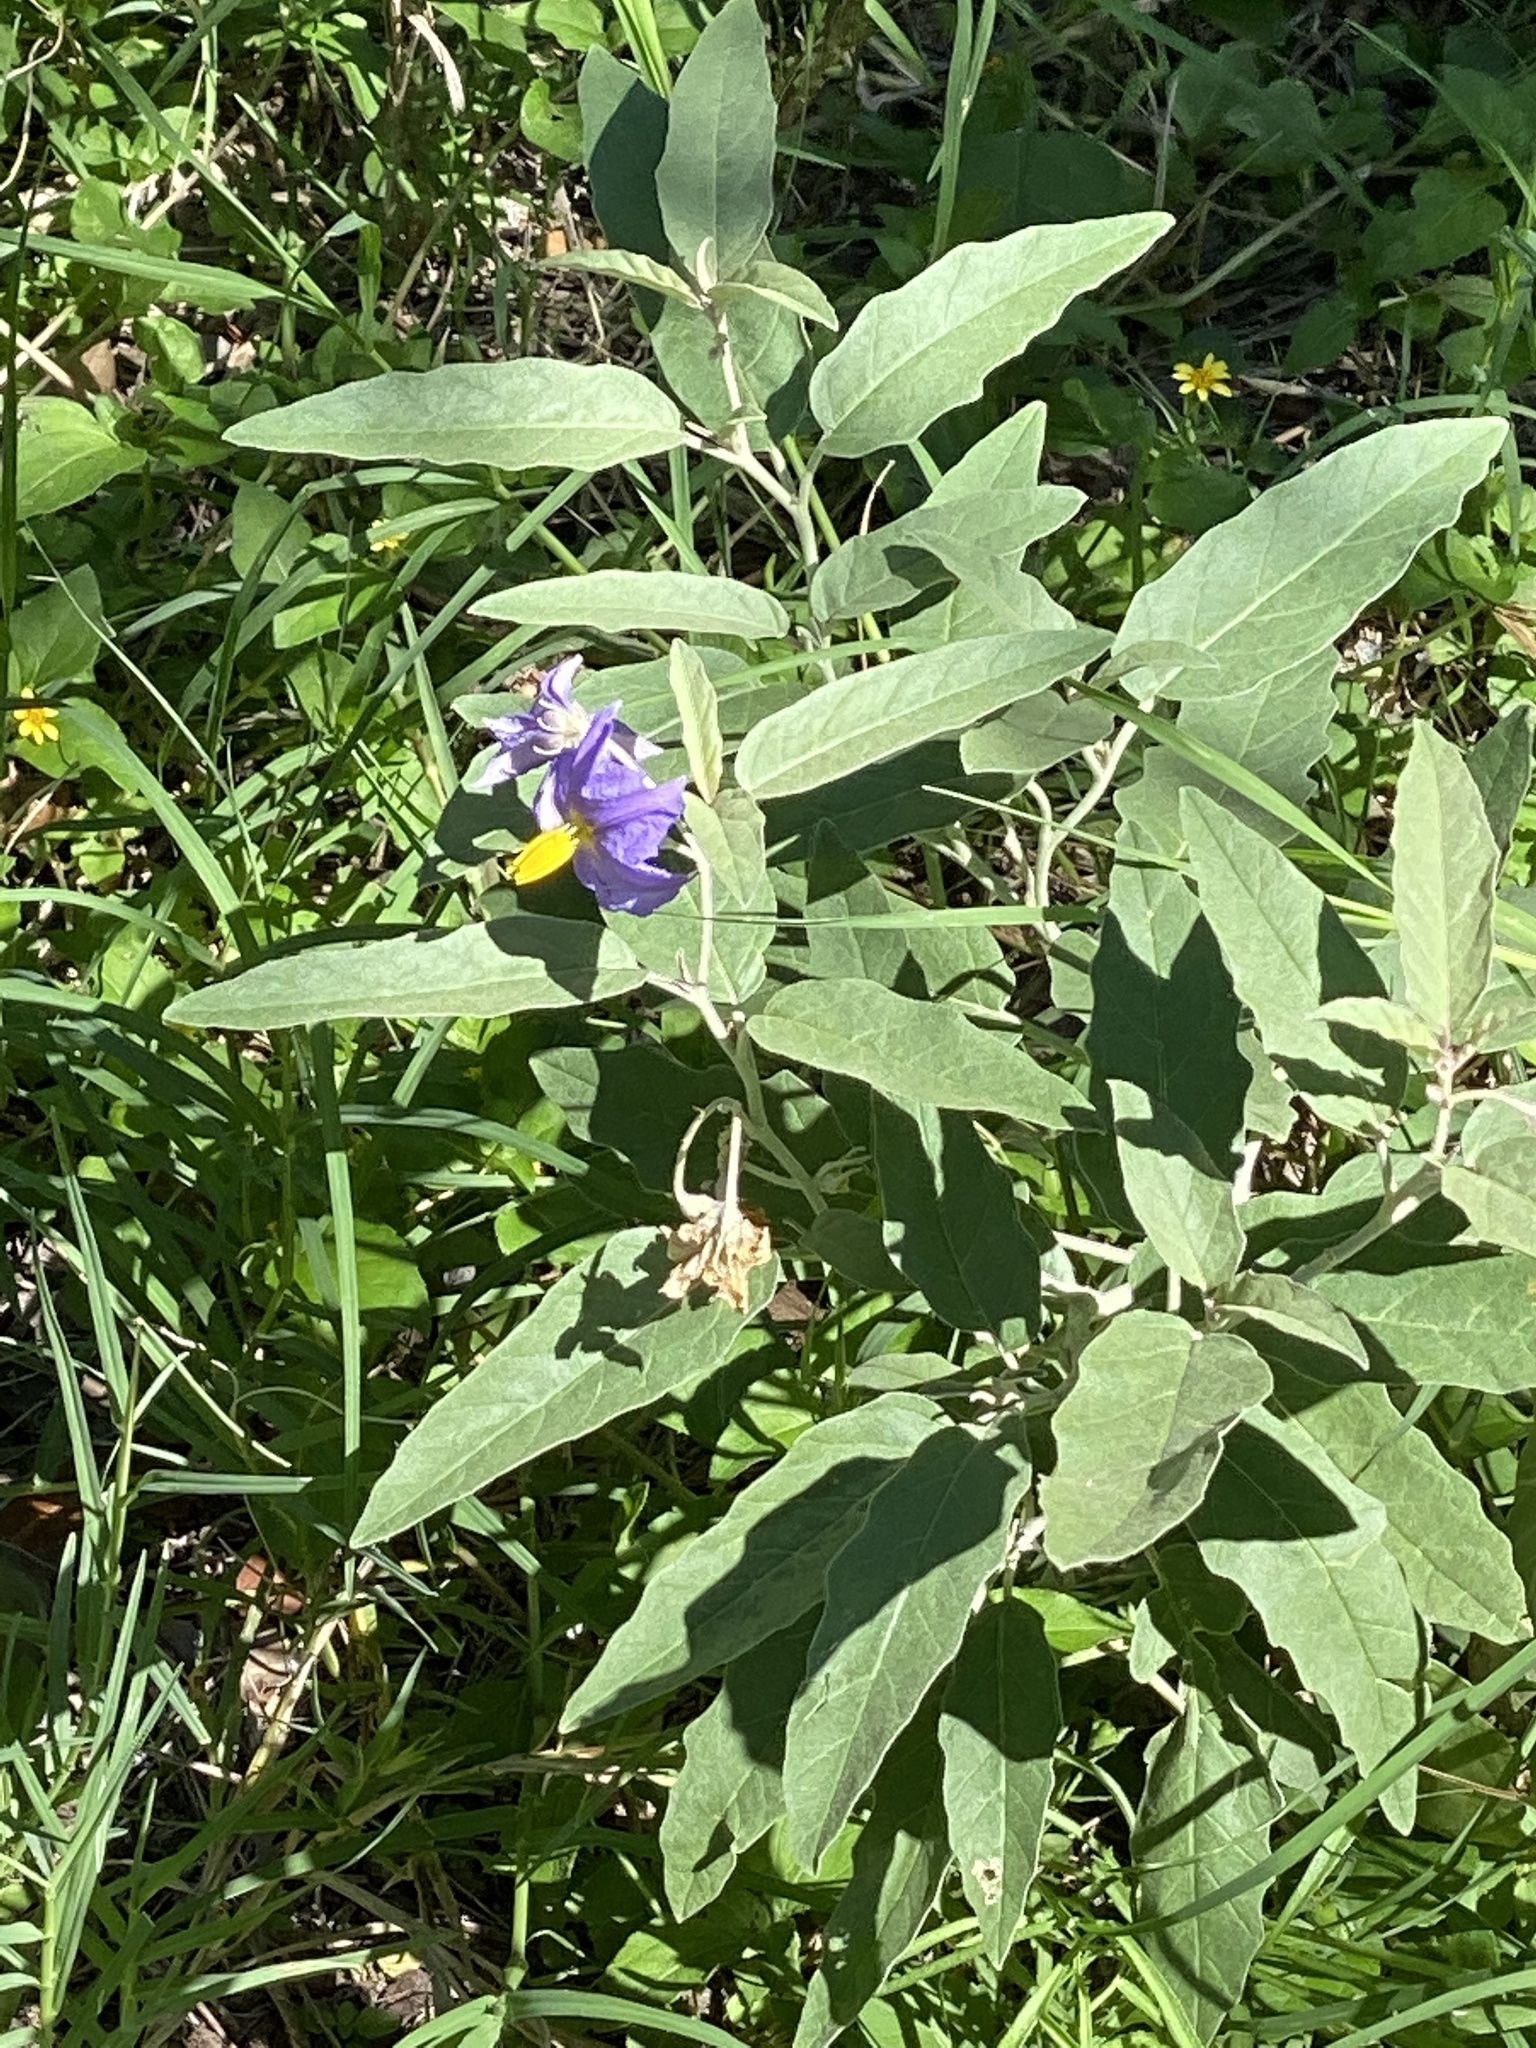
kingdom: Plantae
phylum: Tracheophyta
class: Magnoliopsida
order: Solanales
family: Solanaceae
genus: Solanum
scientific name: Solanum elaeagnifolium
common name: Silverleaf nightshade
